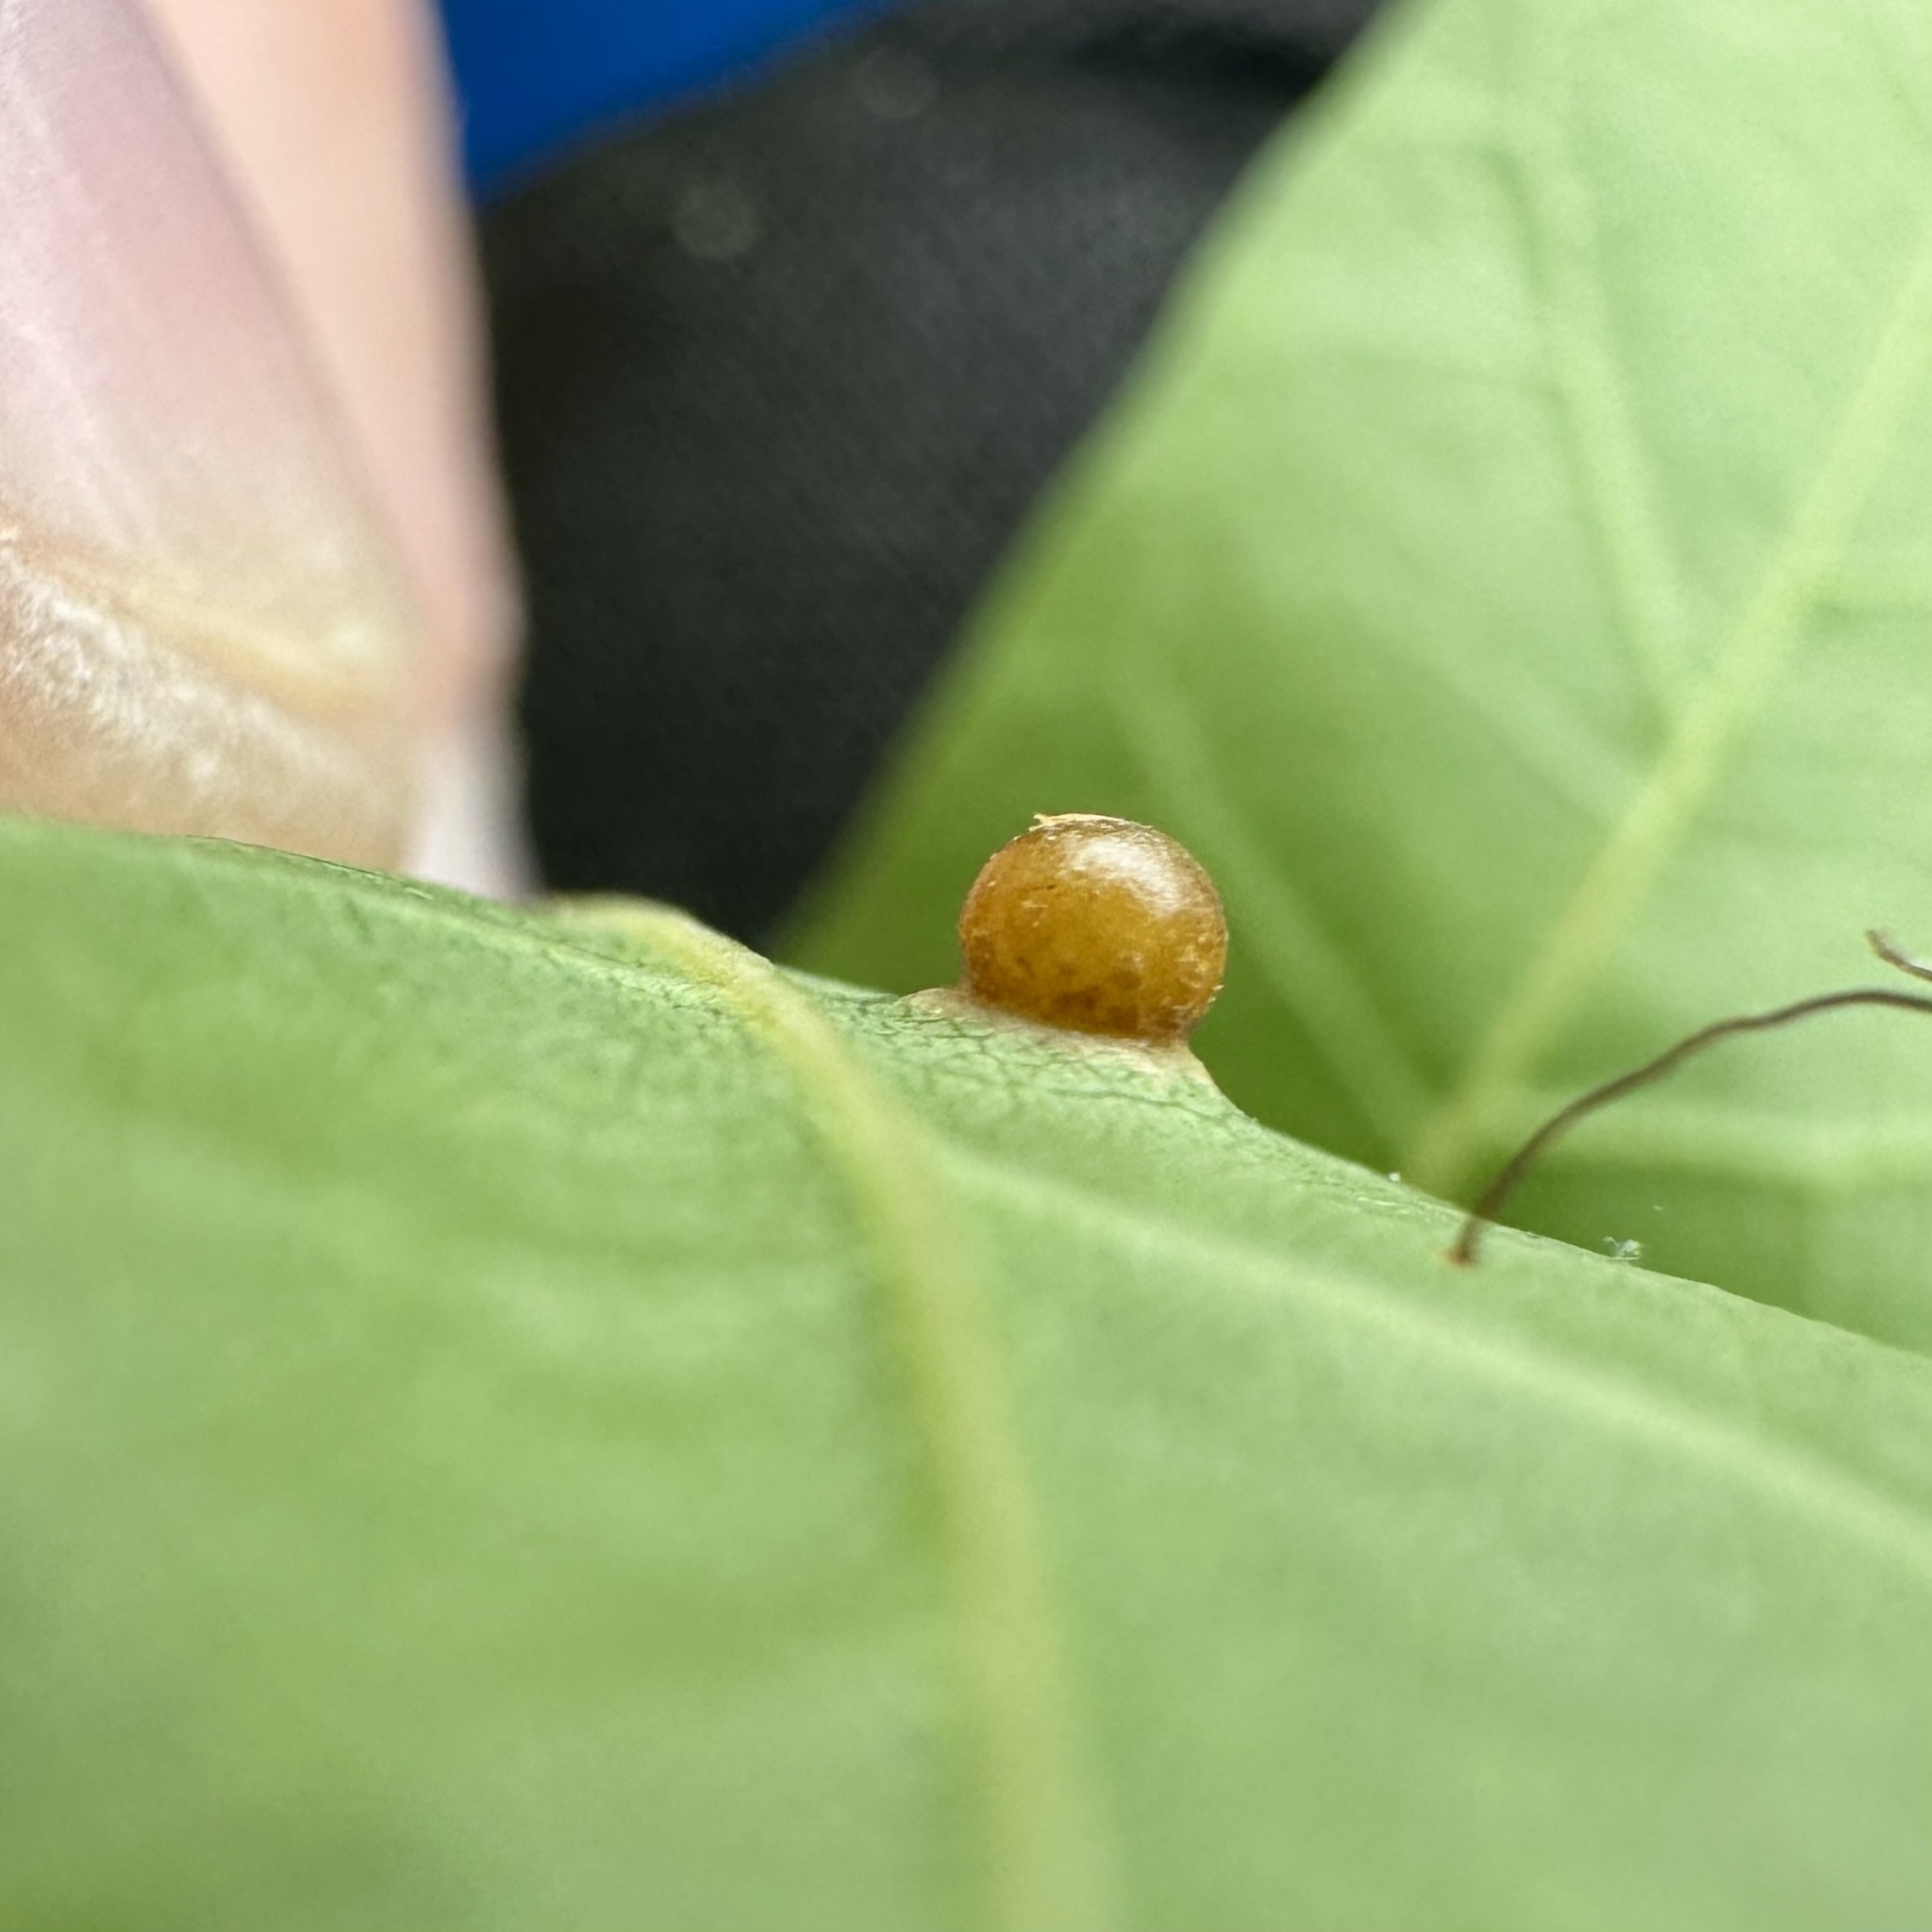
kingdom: Animalia
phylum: Arthropoda
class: Insecta
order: Diptera
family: Cecidomyiidae
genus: Polystepha
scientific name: Polystepha globosa
